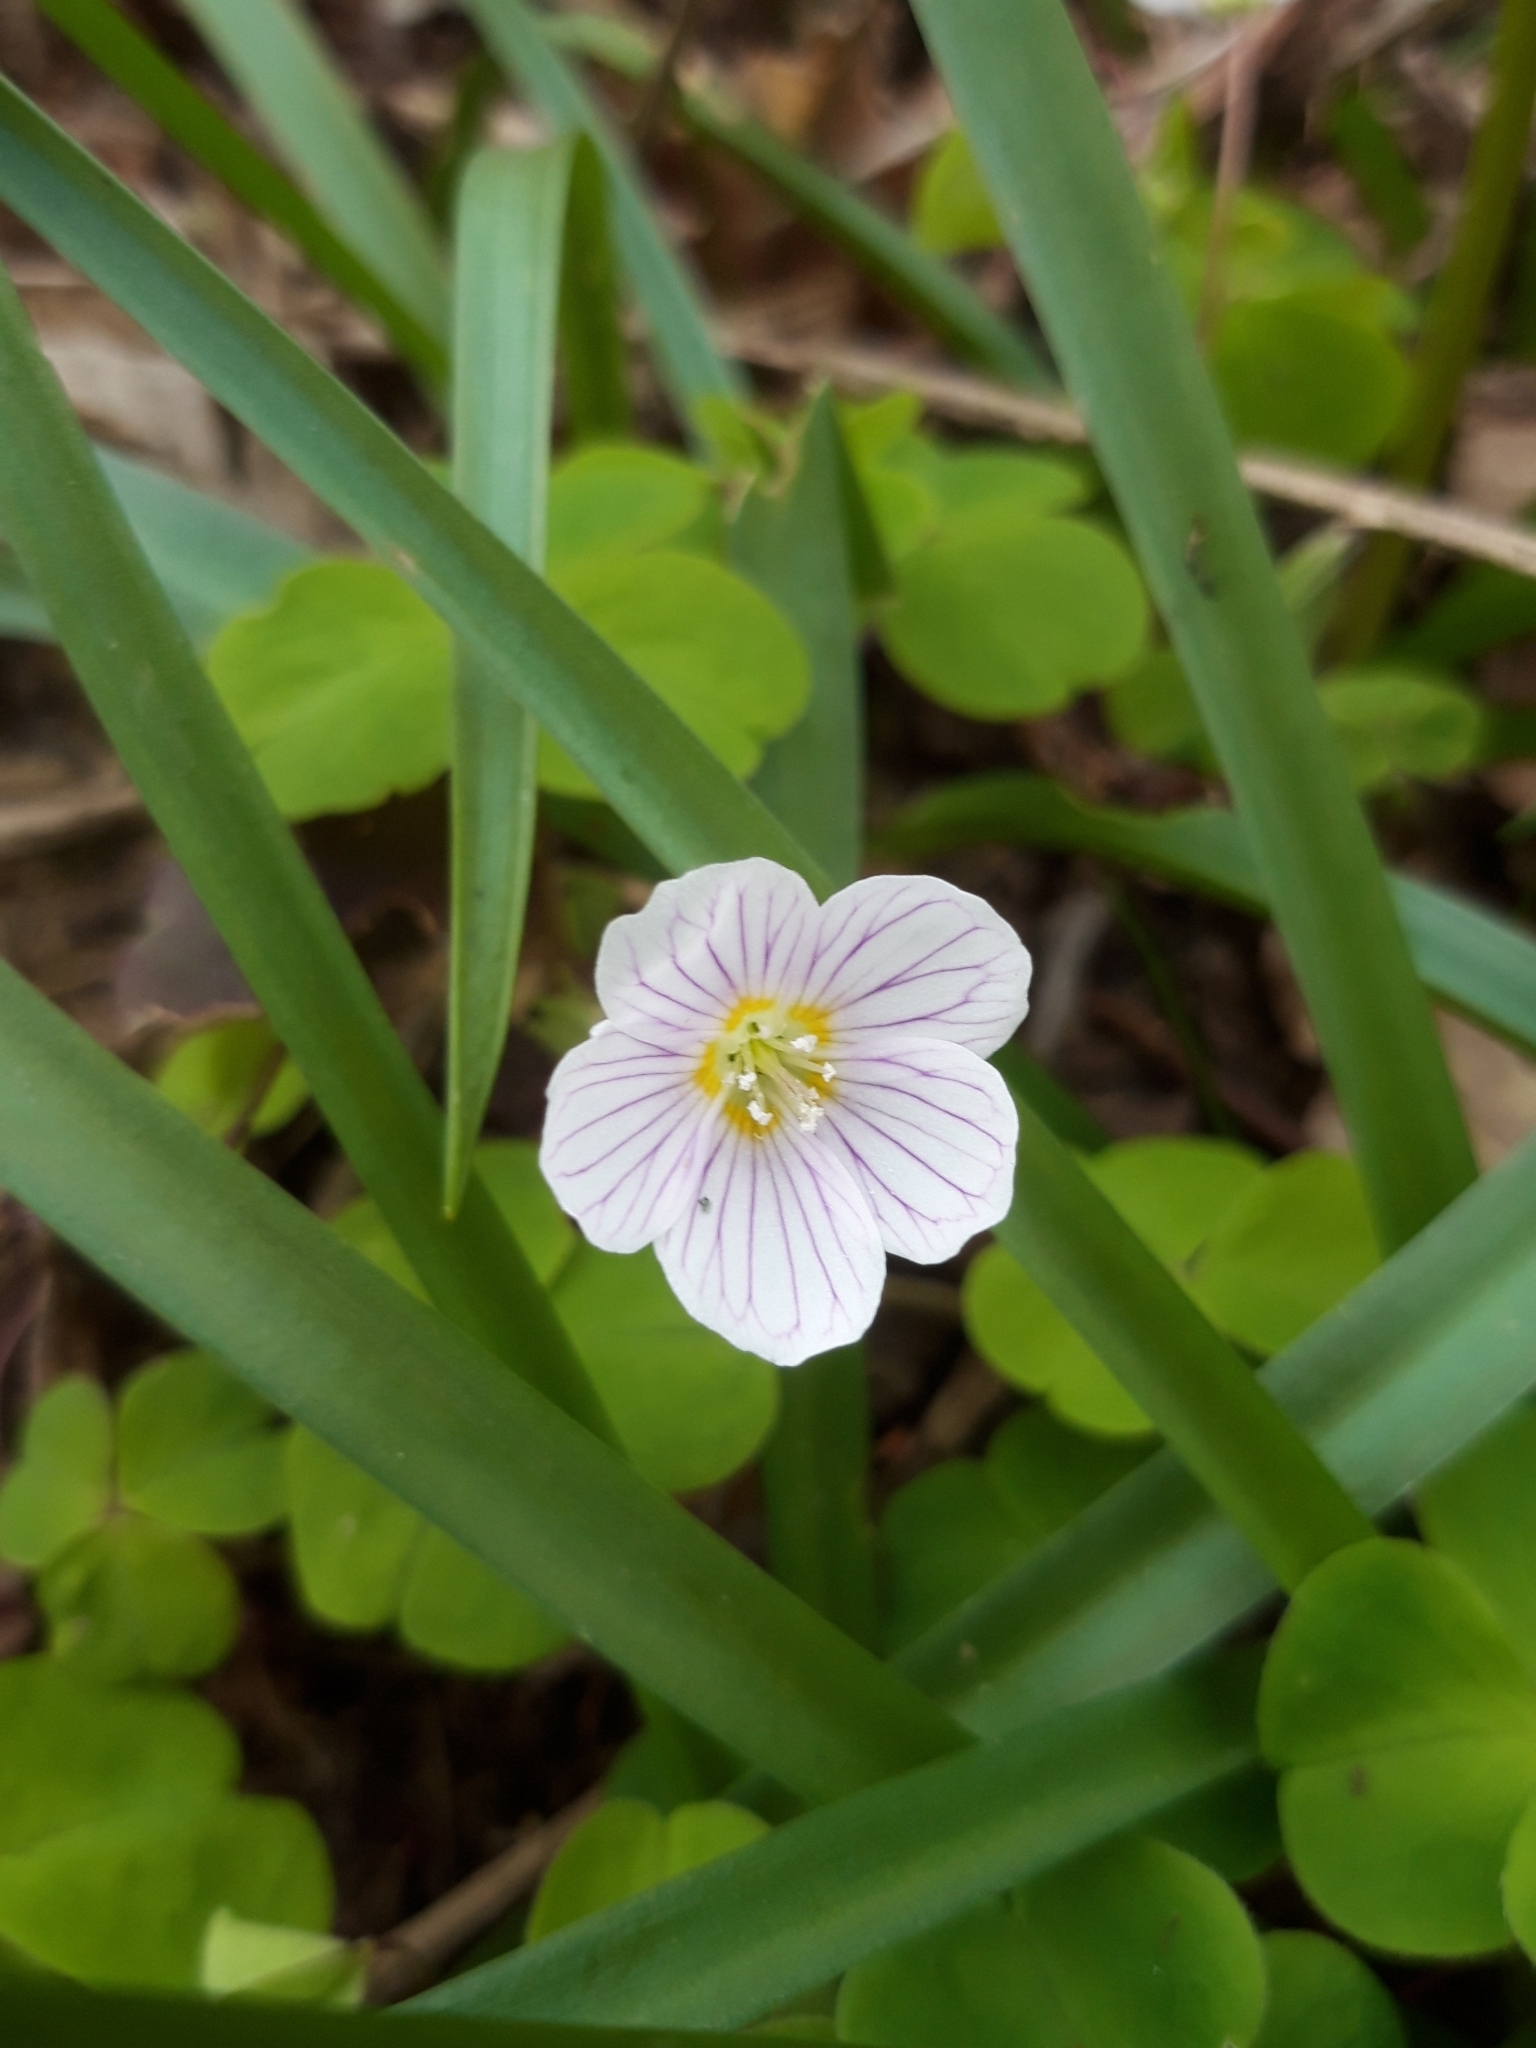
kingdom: Plantae
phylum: Tracheophyta
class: Magnoliopsida
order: Oxalidales
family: Oxalidaceae
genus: Oxalis
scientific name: Oxalis acetosella
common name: Wood-sorrel
